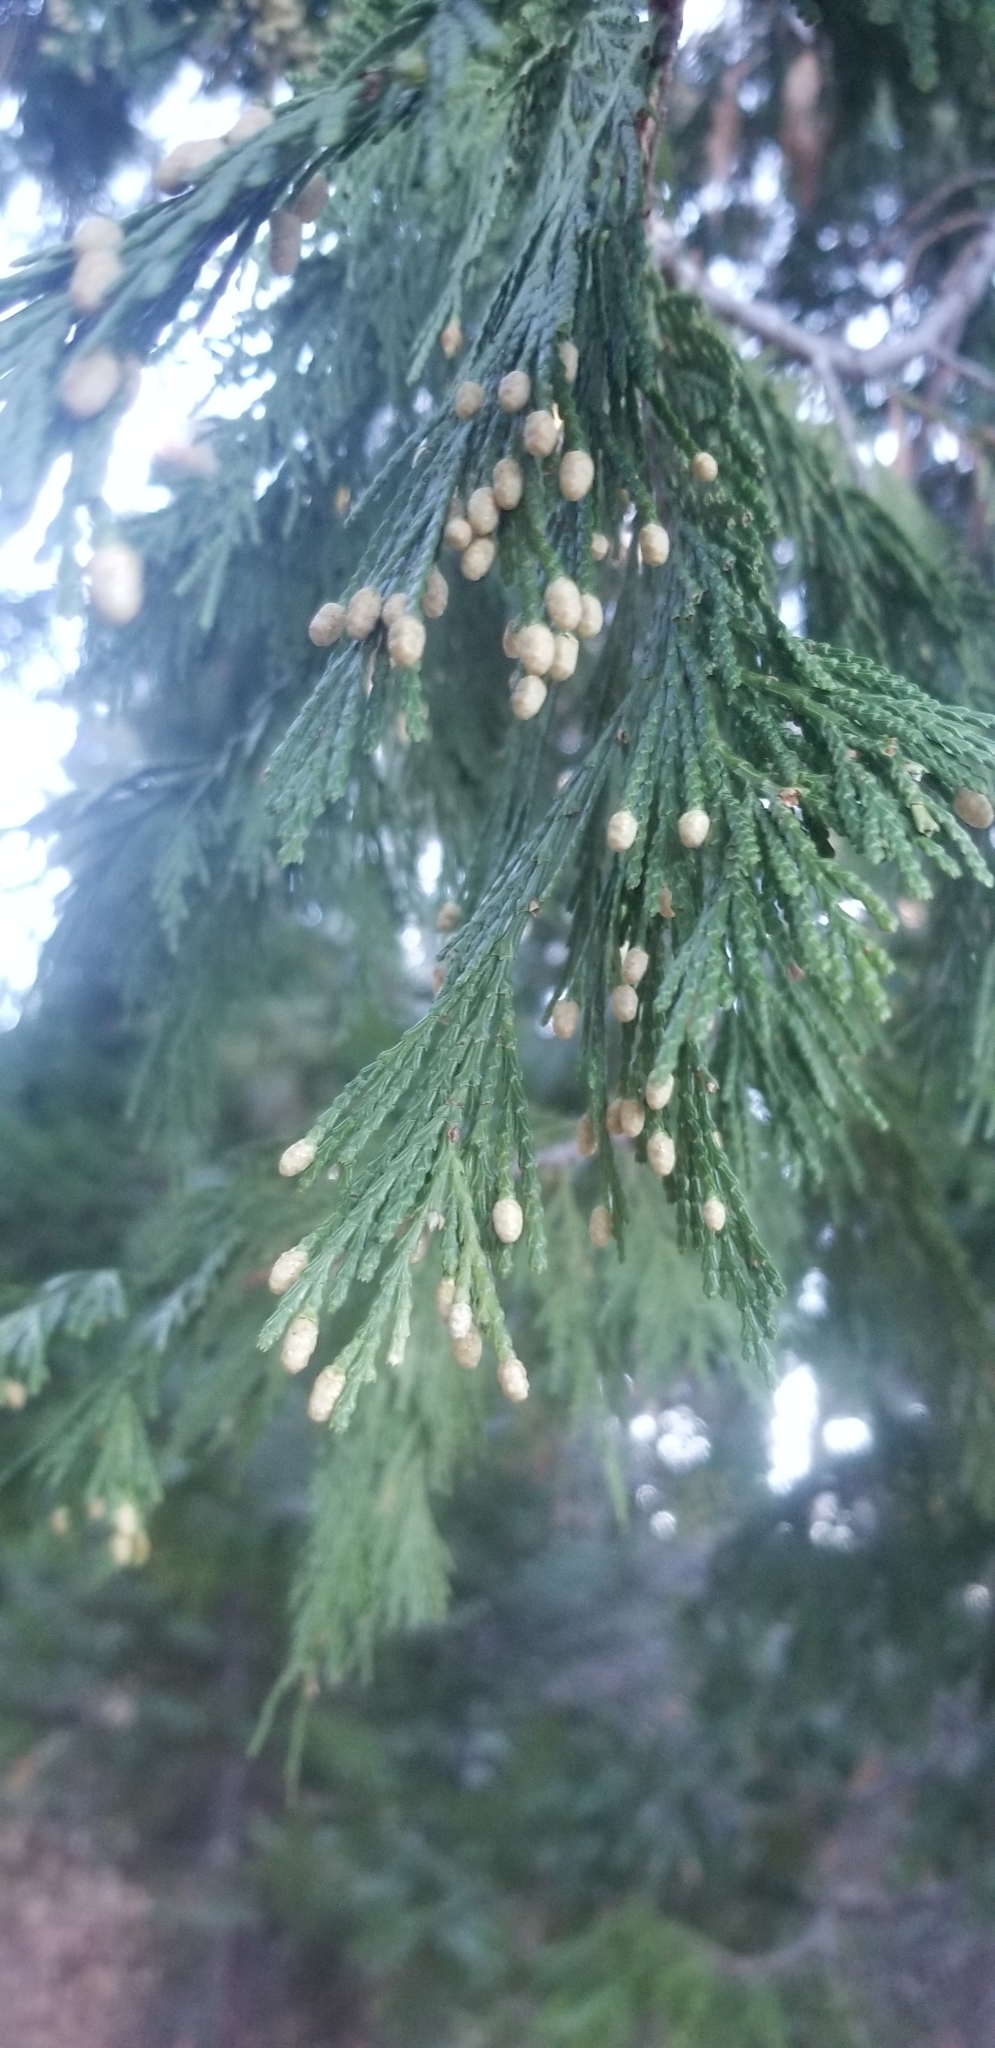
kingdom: Plantae
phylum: Tracheophyta
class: Pinopsida
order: Pinales
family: Cupressaceae
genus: Calocedrus
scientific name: Calocedrus decurrens
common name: Californian incense-cedar
